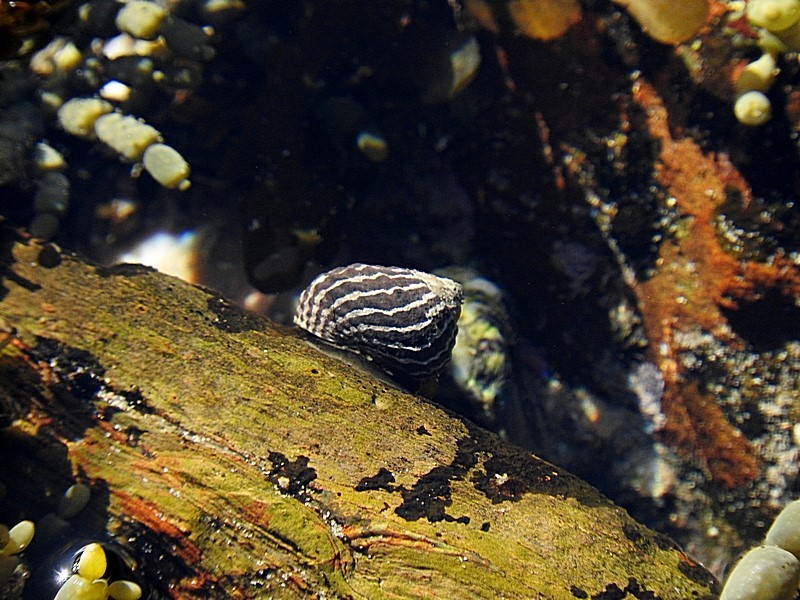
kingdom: Animalia
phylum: Mollusca
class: Gastropoda
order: Trochida
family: Trochidae
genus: Austrocochlea
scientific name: Austrocochlea porcata
